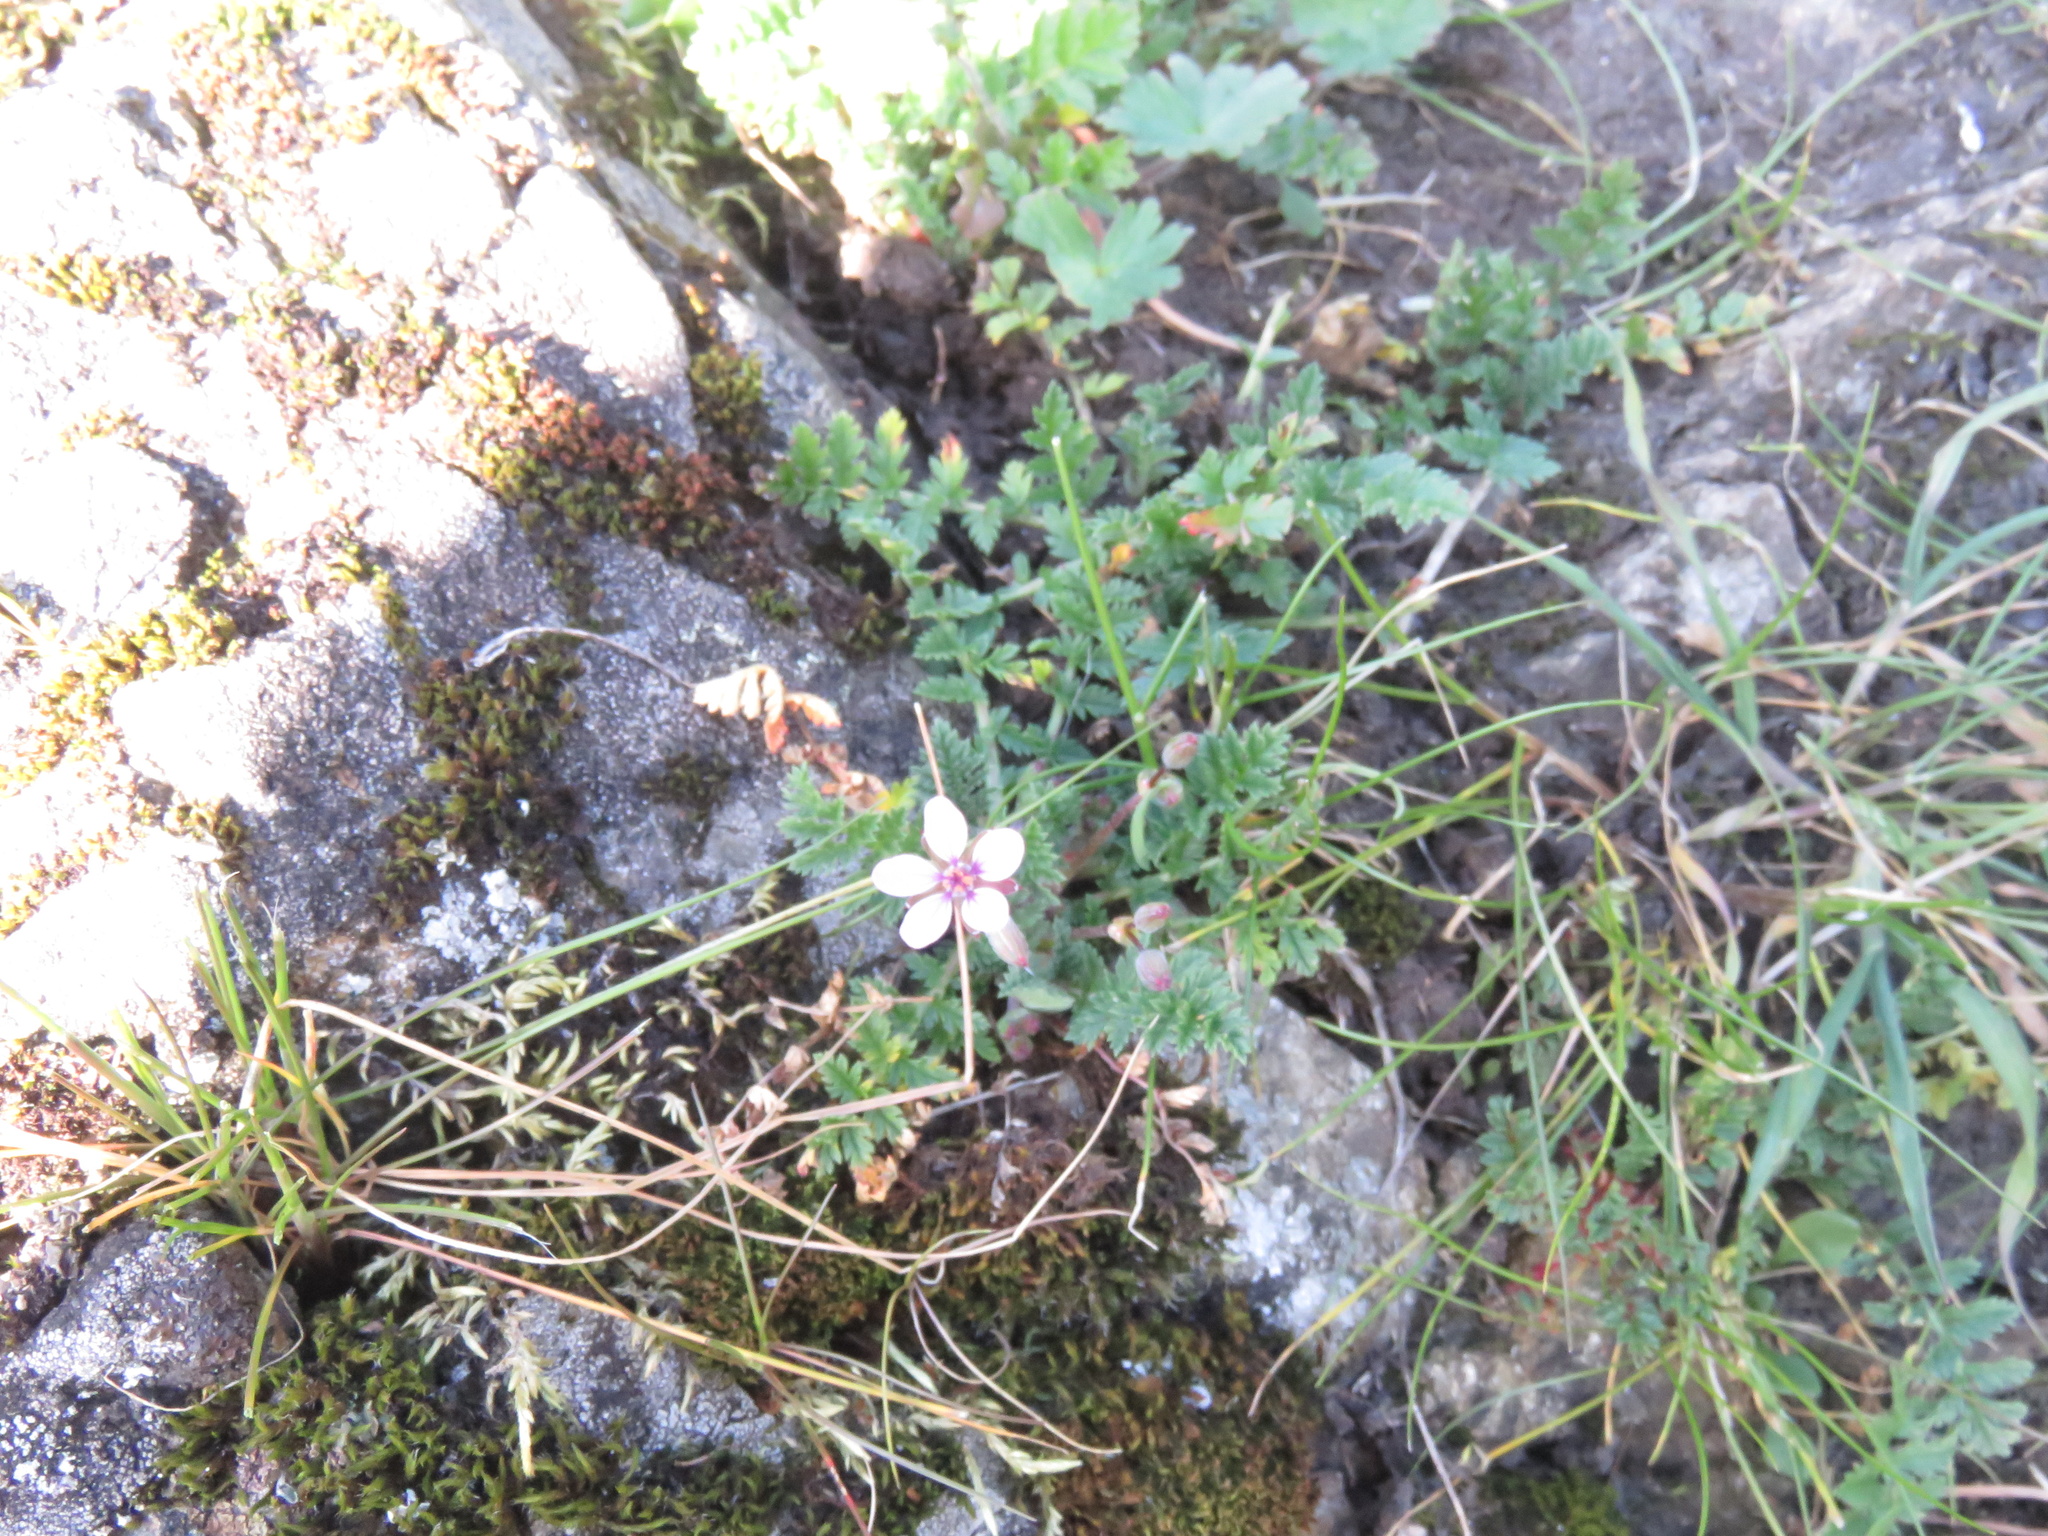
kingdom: Plantae
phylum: Tracheophyta
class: Magnoliopsida
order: Geraniales
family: Geraniaceae
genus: Erodium
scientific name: Erodium cicutarium
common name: Common stork's-bill
